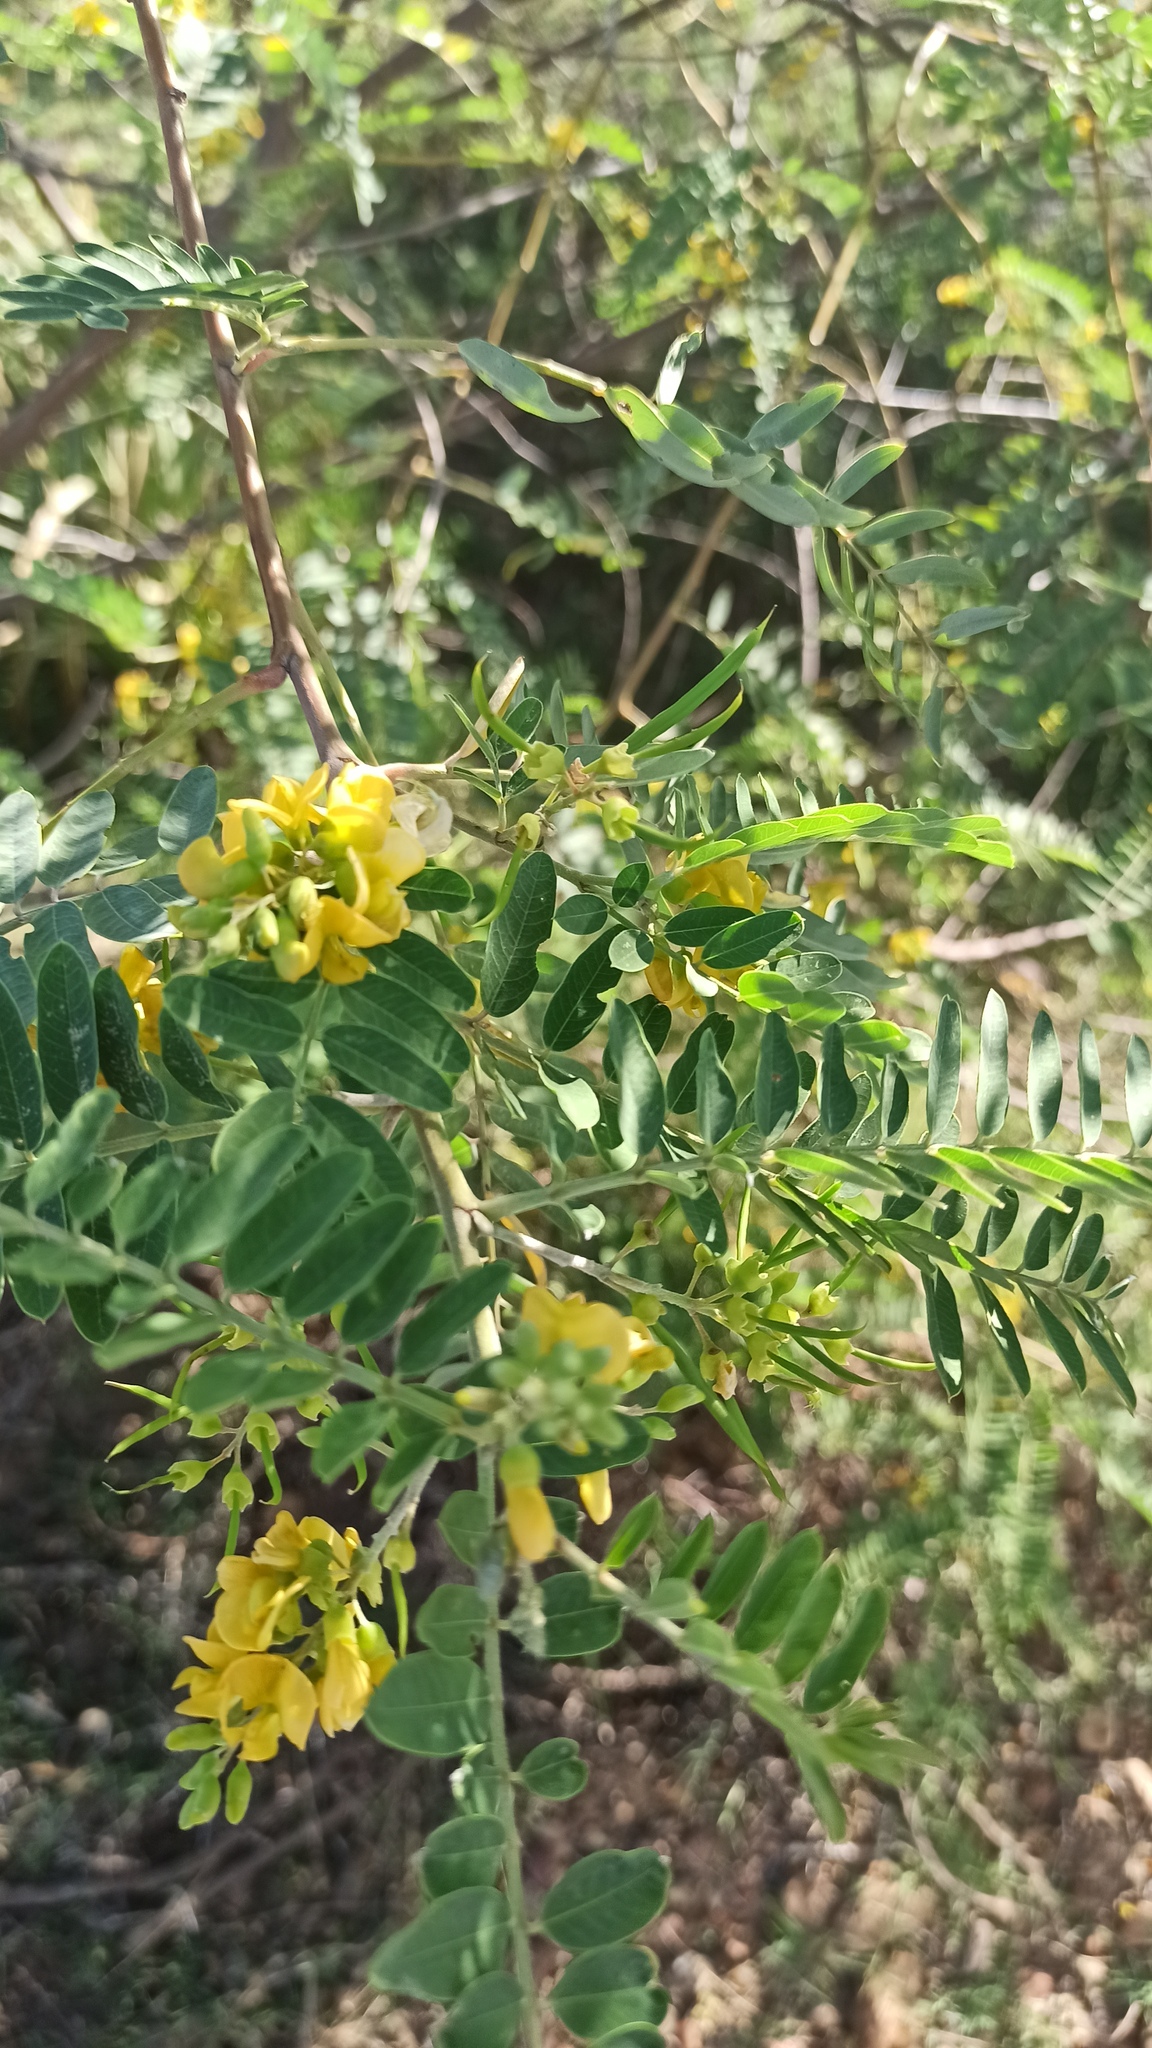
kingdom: Plantae
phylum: Tracheophyta
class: Magnoliopsida
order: Fabales
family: Fabaceae
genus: Sesbania
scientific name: Sesbania virgata
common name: Wand riverhemp
